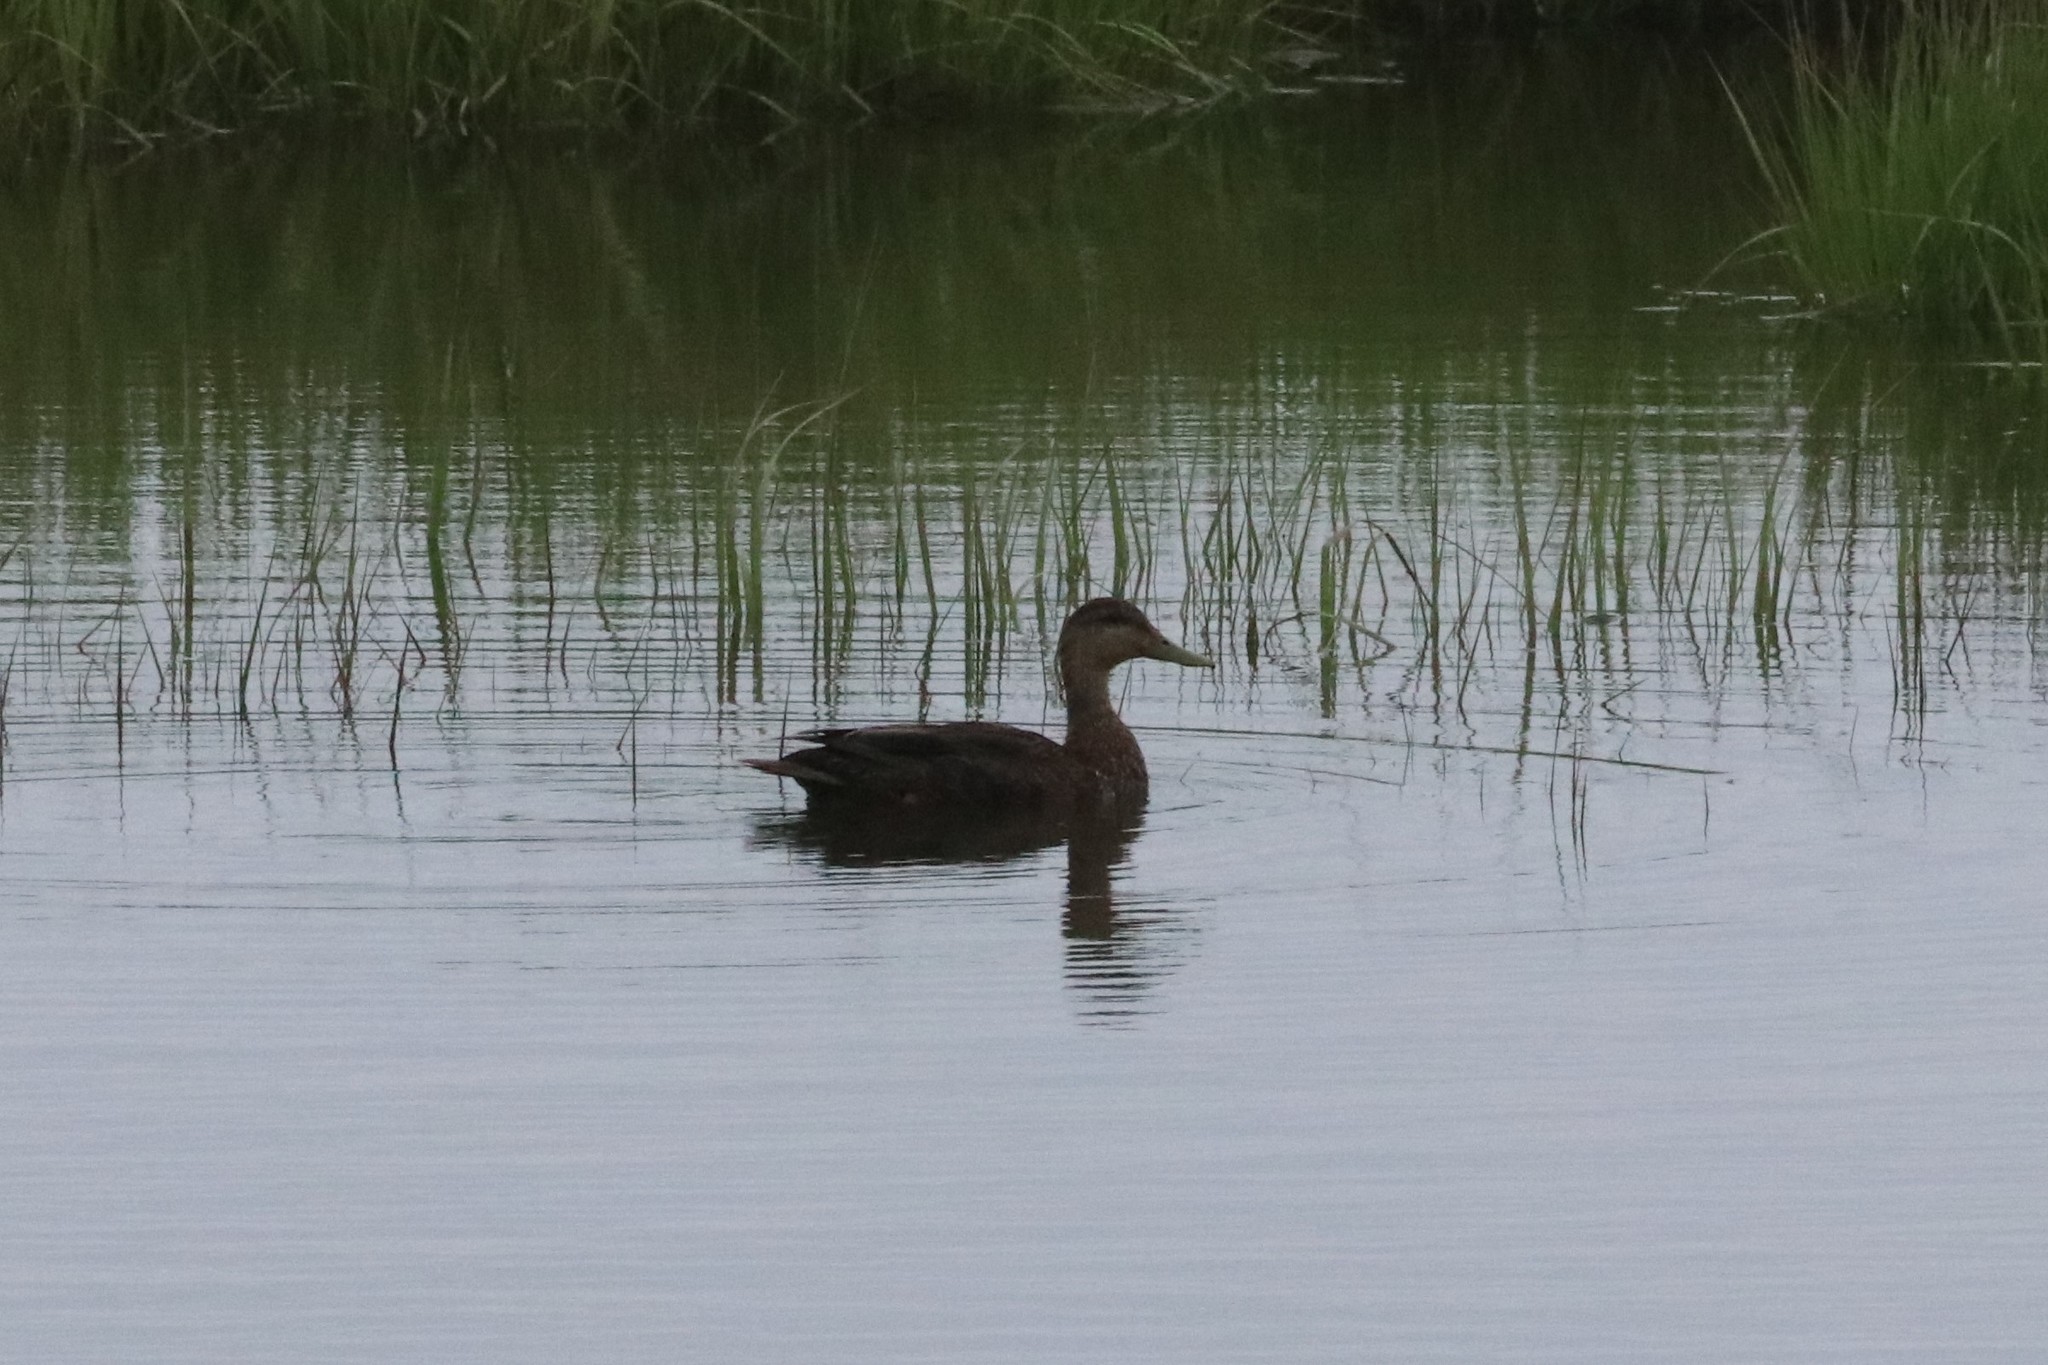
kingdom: Animalia
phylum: Chordata
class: Aves
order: Anseriformes
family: Anatidae
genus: Anas
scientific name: Anas rubripes
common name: American black duck
